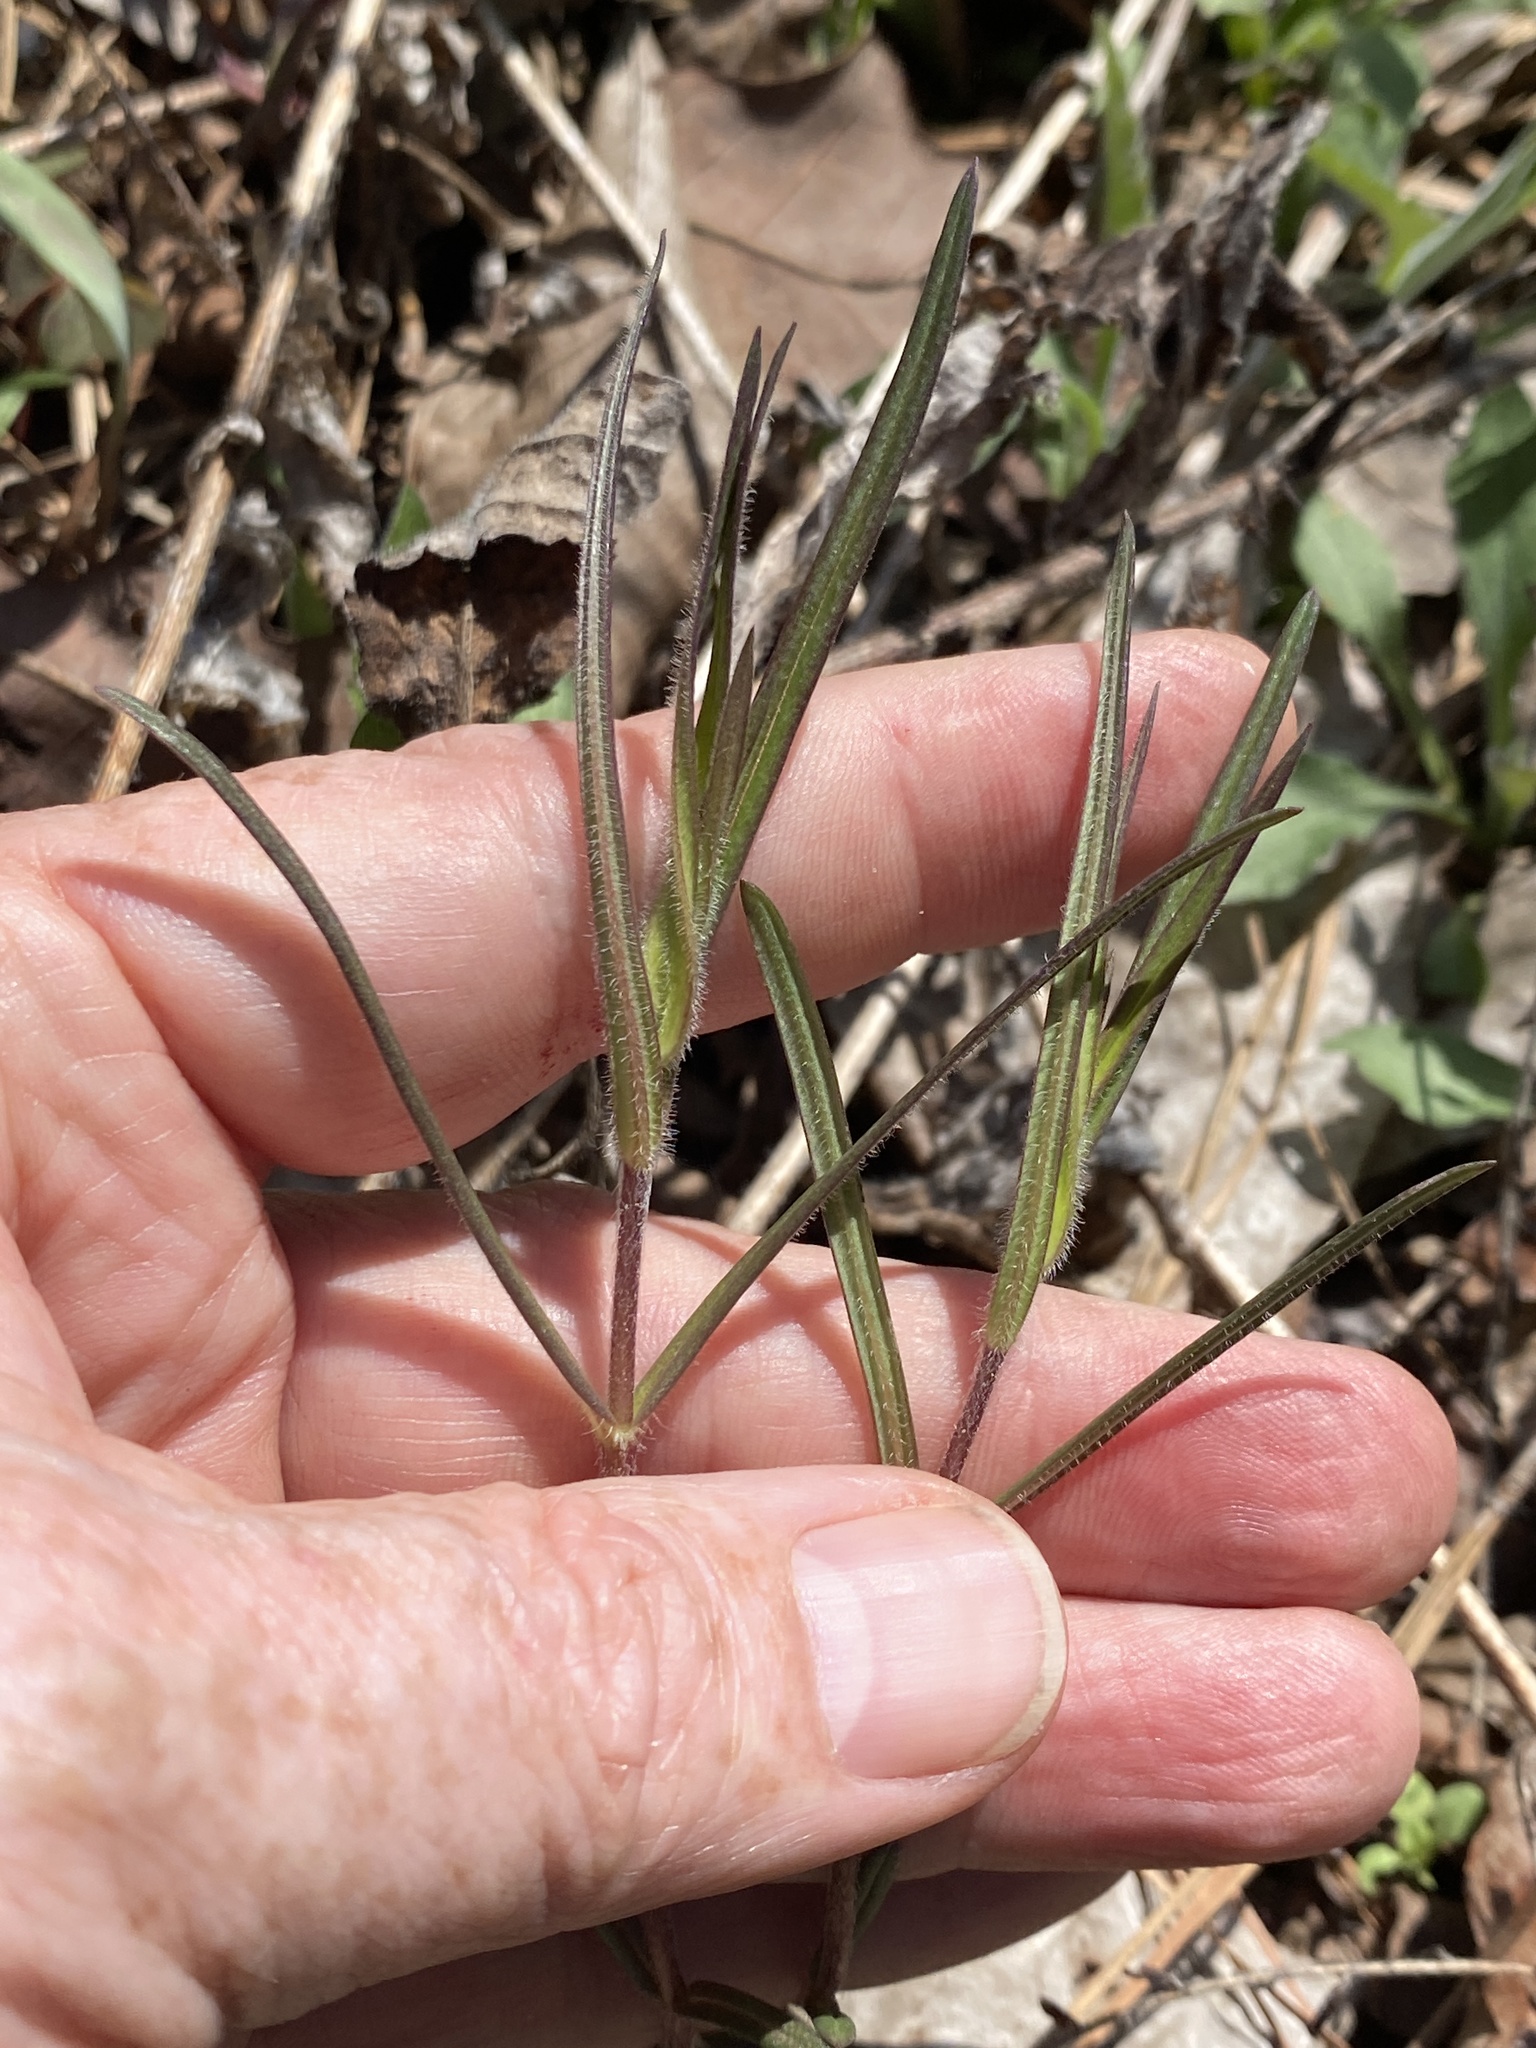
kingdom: Plantae
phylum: Tracheophyta
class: Magnoliopsida
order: Ericales
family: Polemoniaceae
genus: Phlox
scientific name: Phlox pilosa
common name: Prairie phlox
